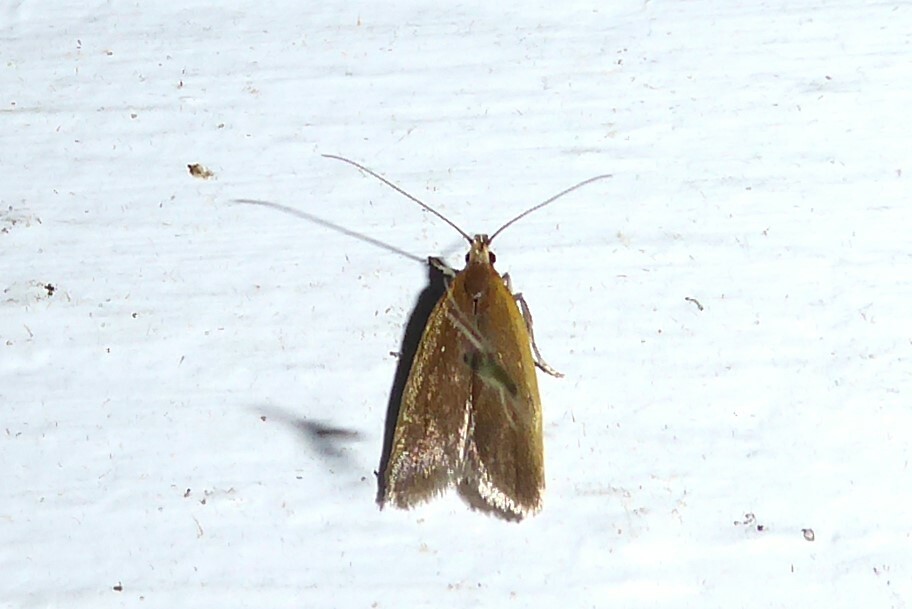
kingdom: Animalia
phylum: Arthropoda
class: Insecta
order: Lepidoptera
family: Oecophoridae
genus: Gymnobathra
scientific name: Gymnobathra parca
